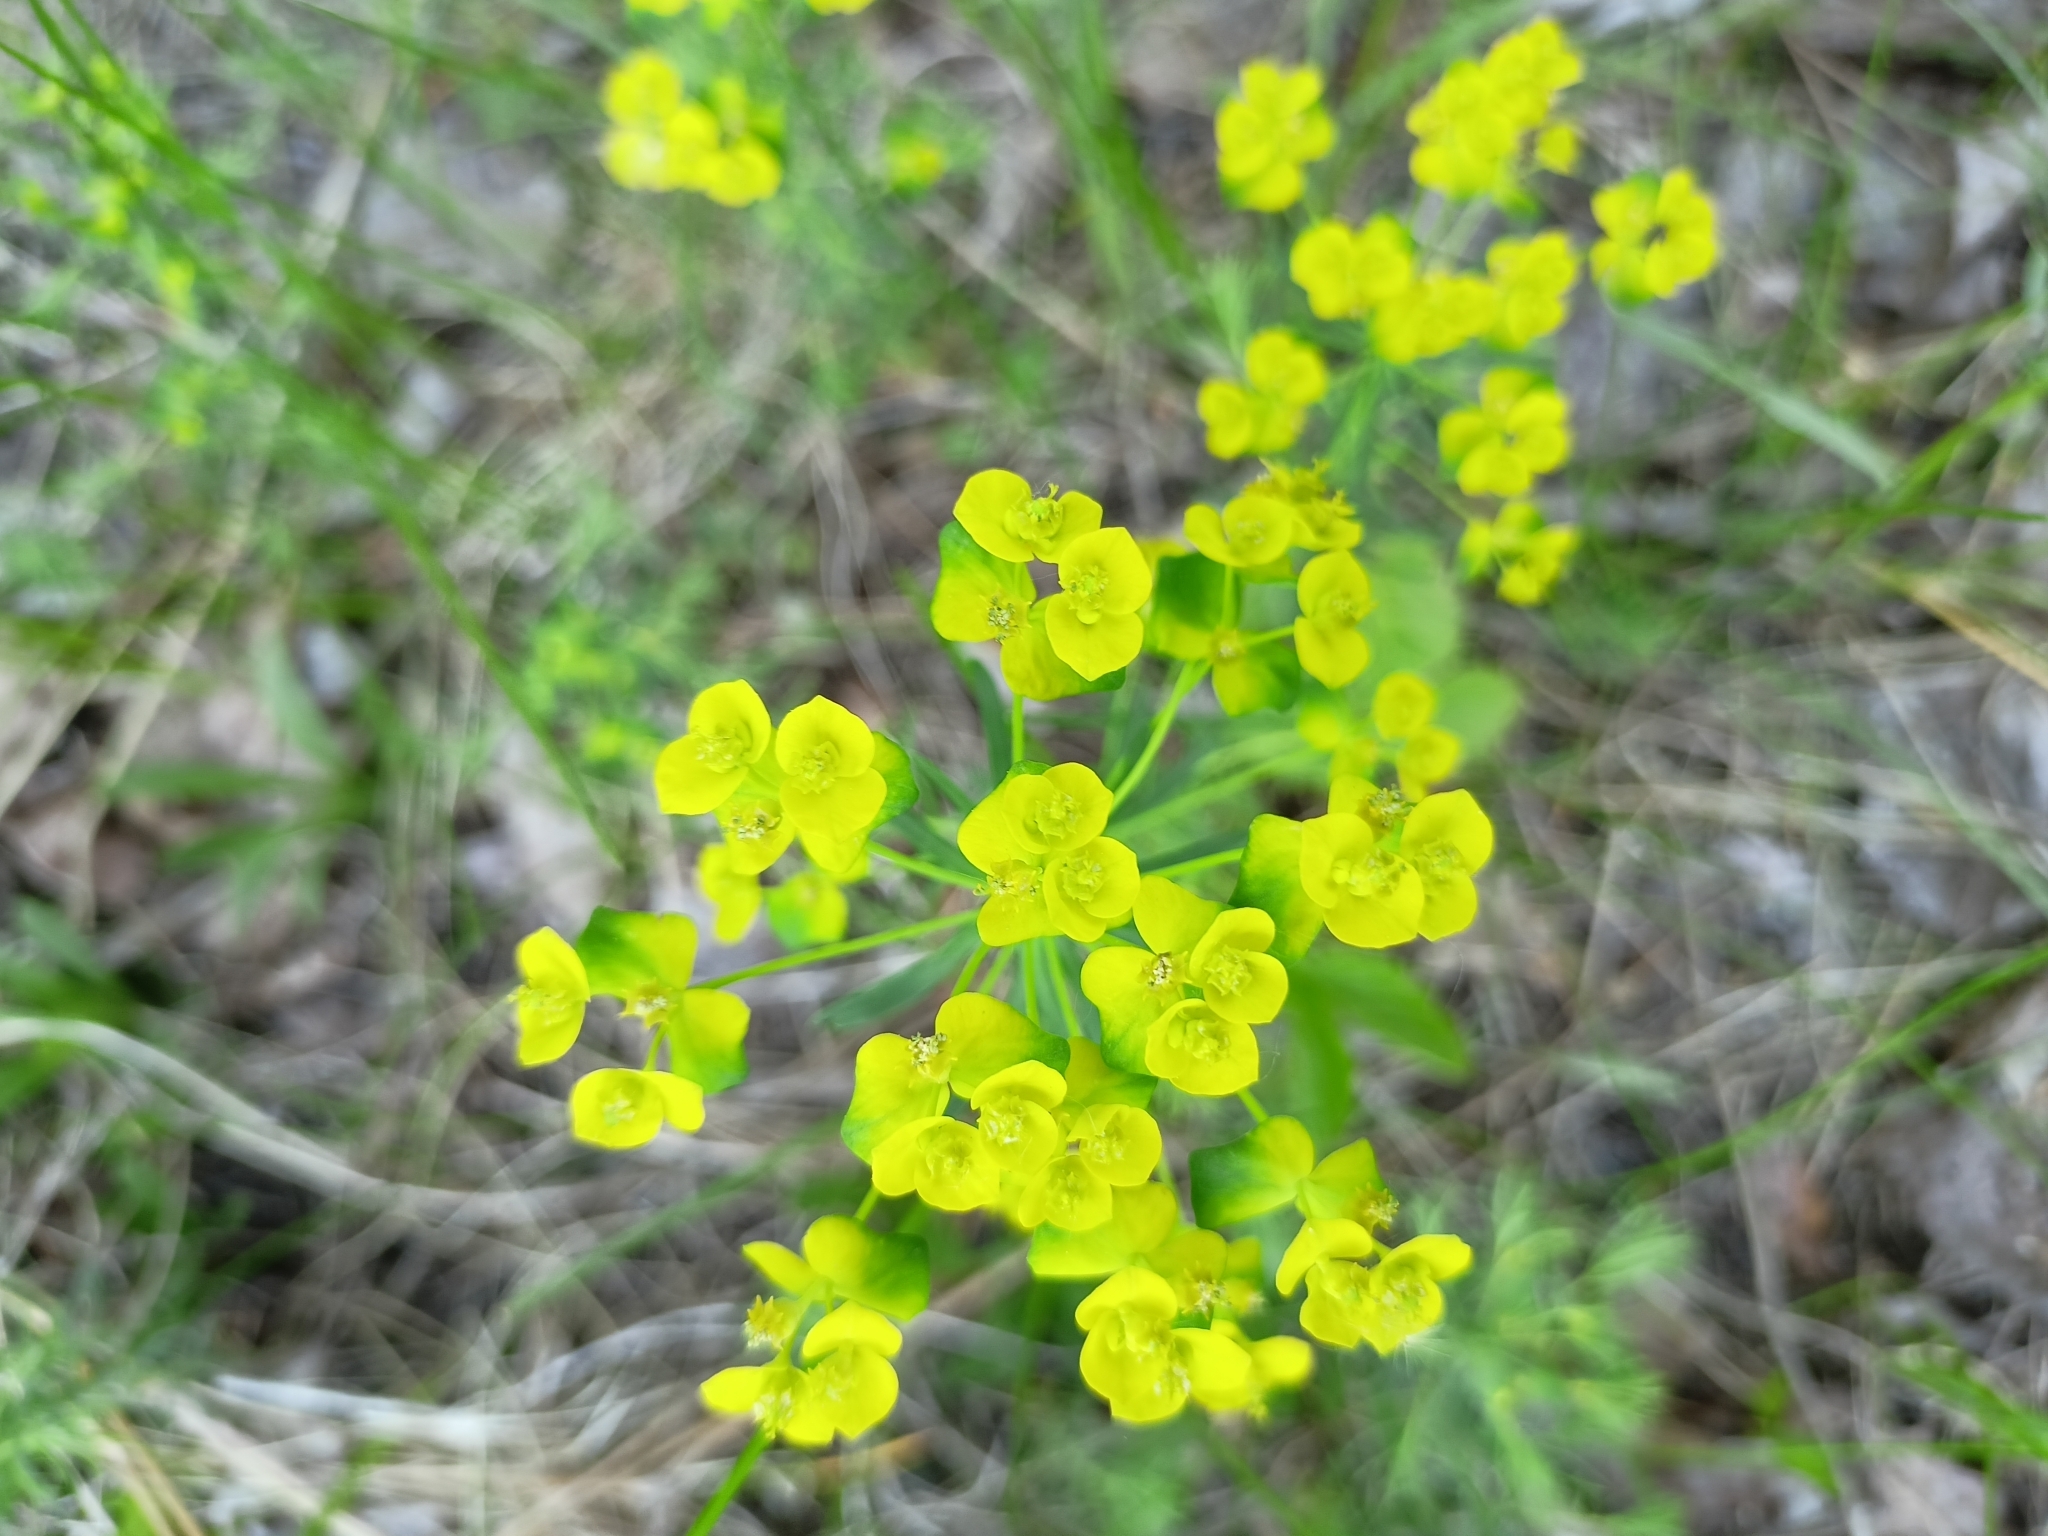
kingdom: Plantae
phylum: Tracheophyta
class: Magnoliopsida
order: Malpighiales
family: Euphorbiaceae
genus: Euphorbia
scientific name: Euphorbia cyparissias
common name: Cypress spurge
